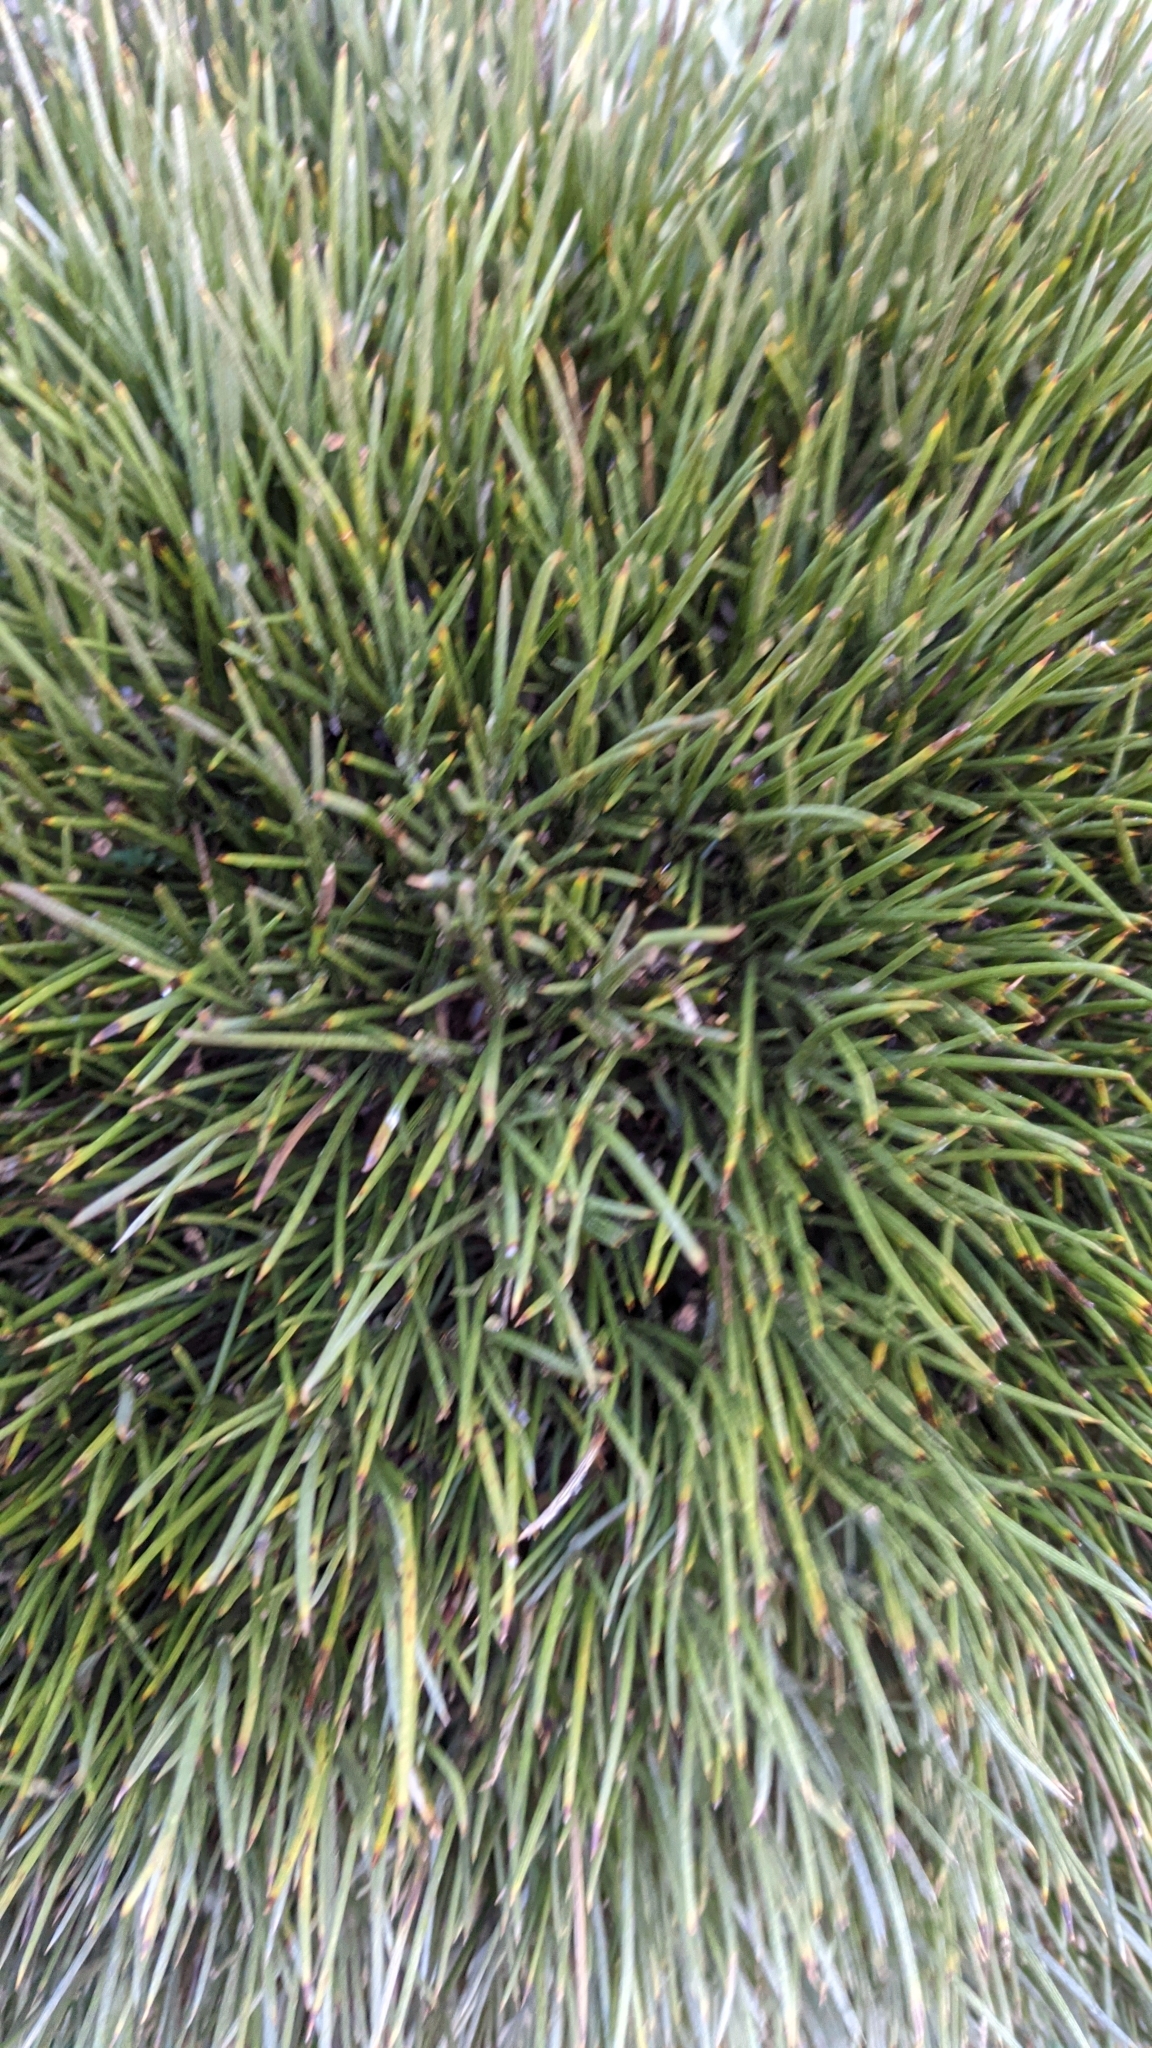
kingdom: Plantae
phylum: Tracheophyta
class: Magnoliopsida
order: Fabales
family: Fabaceae
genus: Erinacea
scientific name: Erinacea anthyllis
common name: Hedgehog-broom
